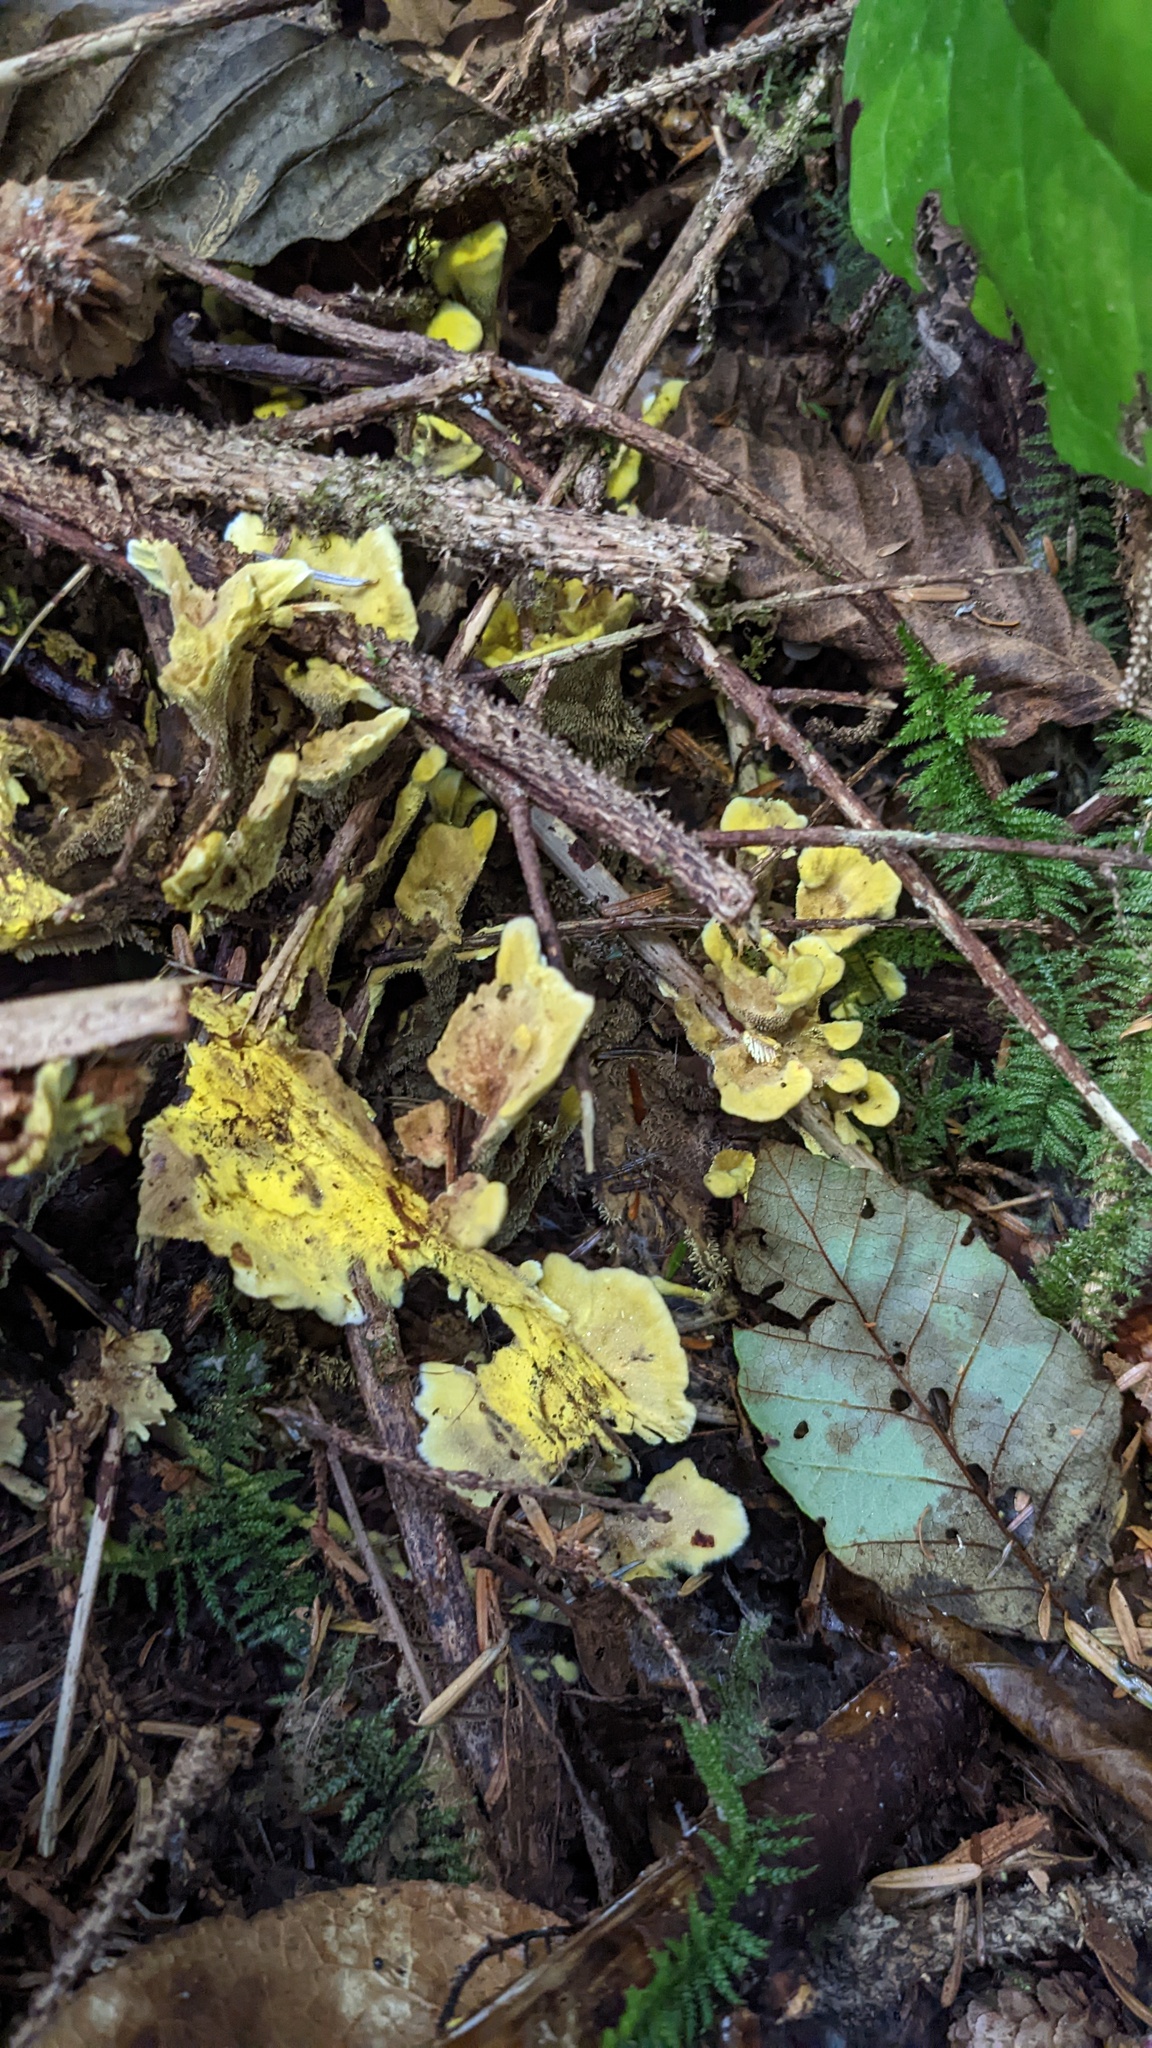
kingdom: Fungi
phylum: Basidiomycota
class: Agaricomycetes
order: Thelephorales
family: Bankeraceae
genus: Hydnellum
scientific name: Hydnellum geogenium
